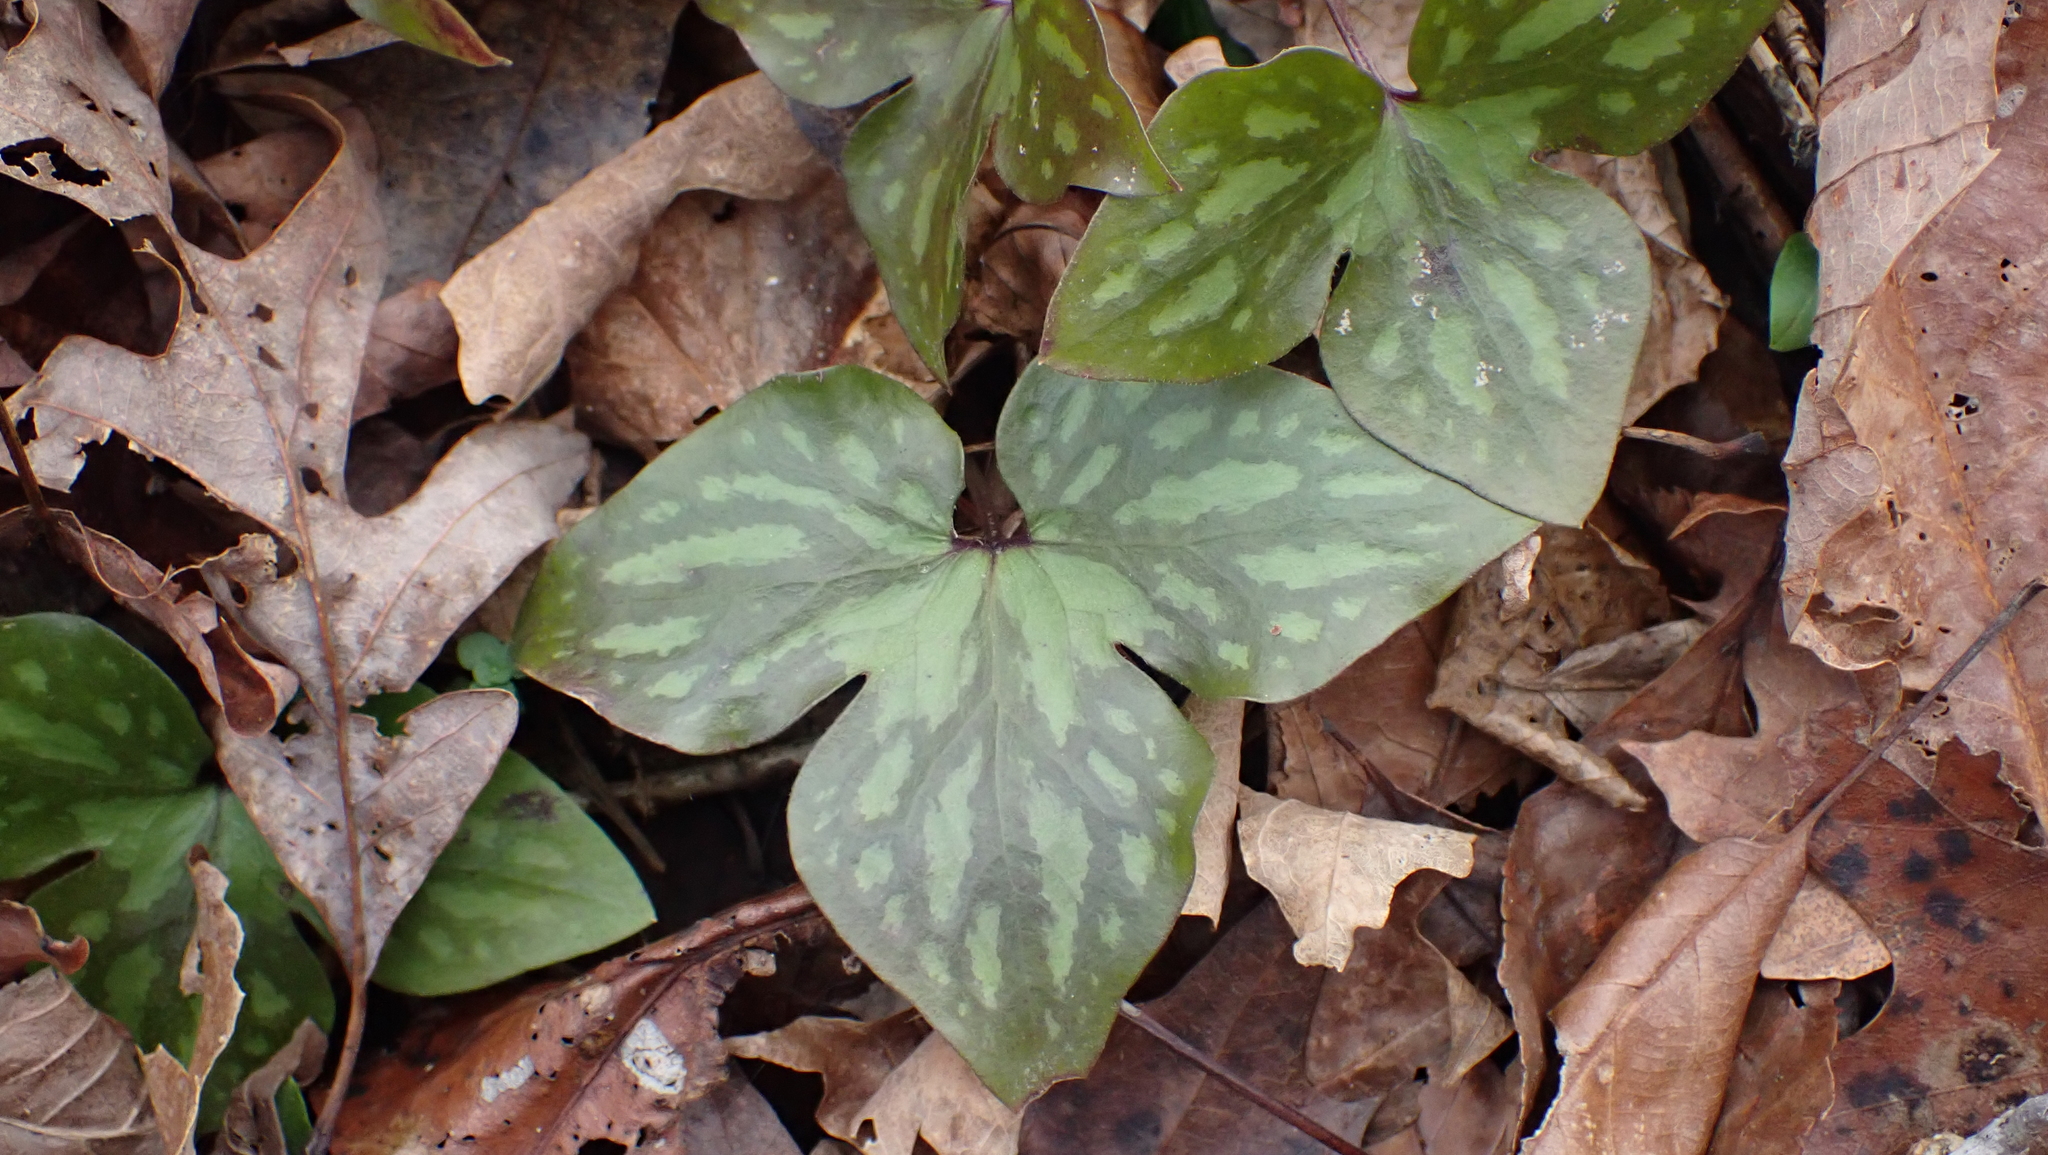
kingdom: Plantae
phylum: Tracheophyta
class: Magnoliopsida
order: Ranunculales
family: Ranunculaceae
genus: Hepatica
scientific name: Hepatica acutiloba
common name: Sharp-lobed hepatica
